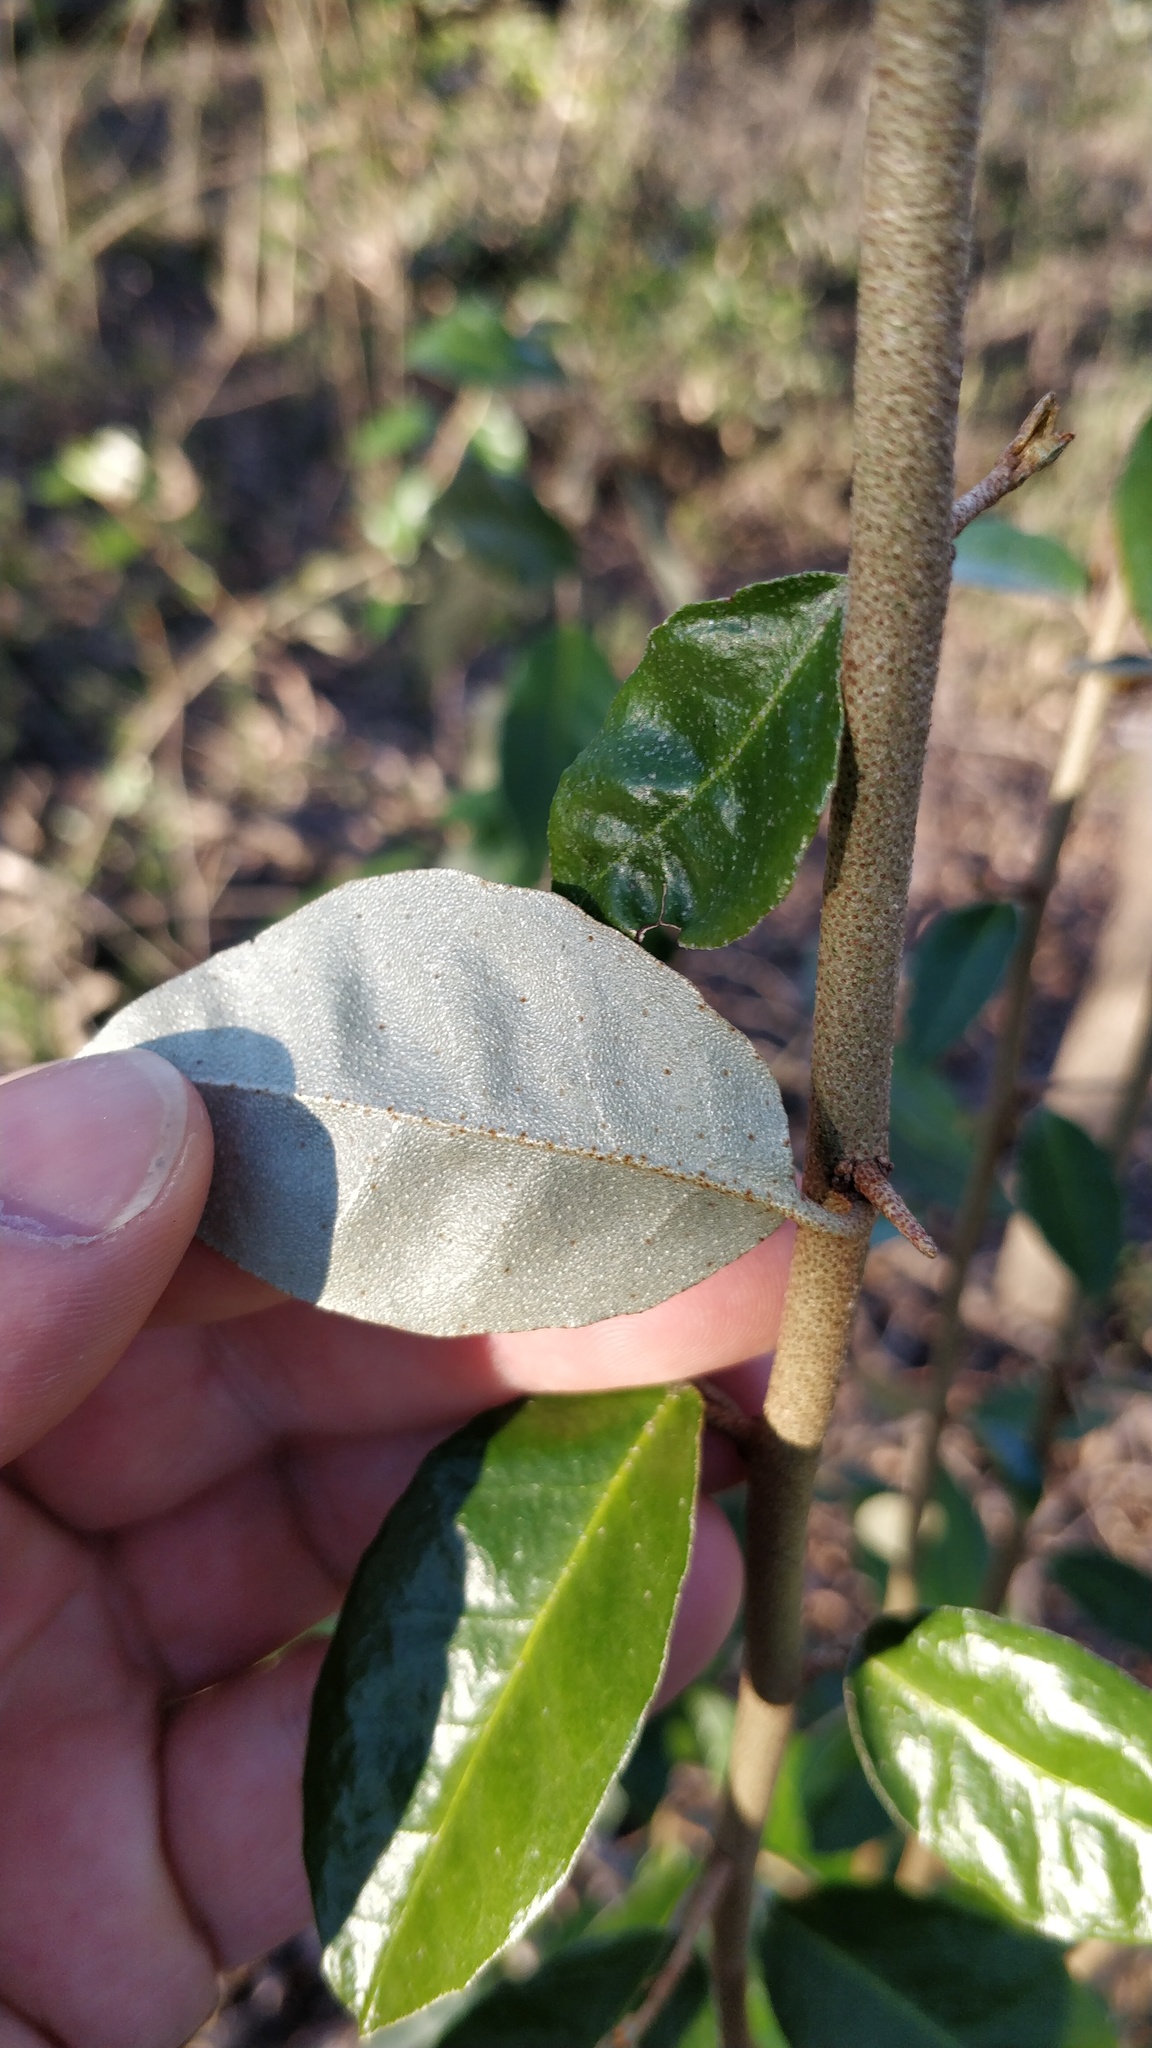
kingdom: Plantae
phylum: Tracheophyta
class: Magnoliopsida
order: Rosales
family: Elaeagnaceae
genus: Elaeagnus
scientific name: Elaeagnus pungens
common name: Spiny oleaster
